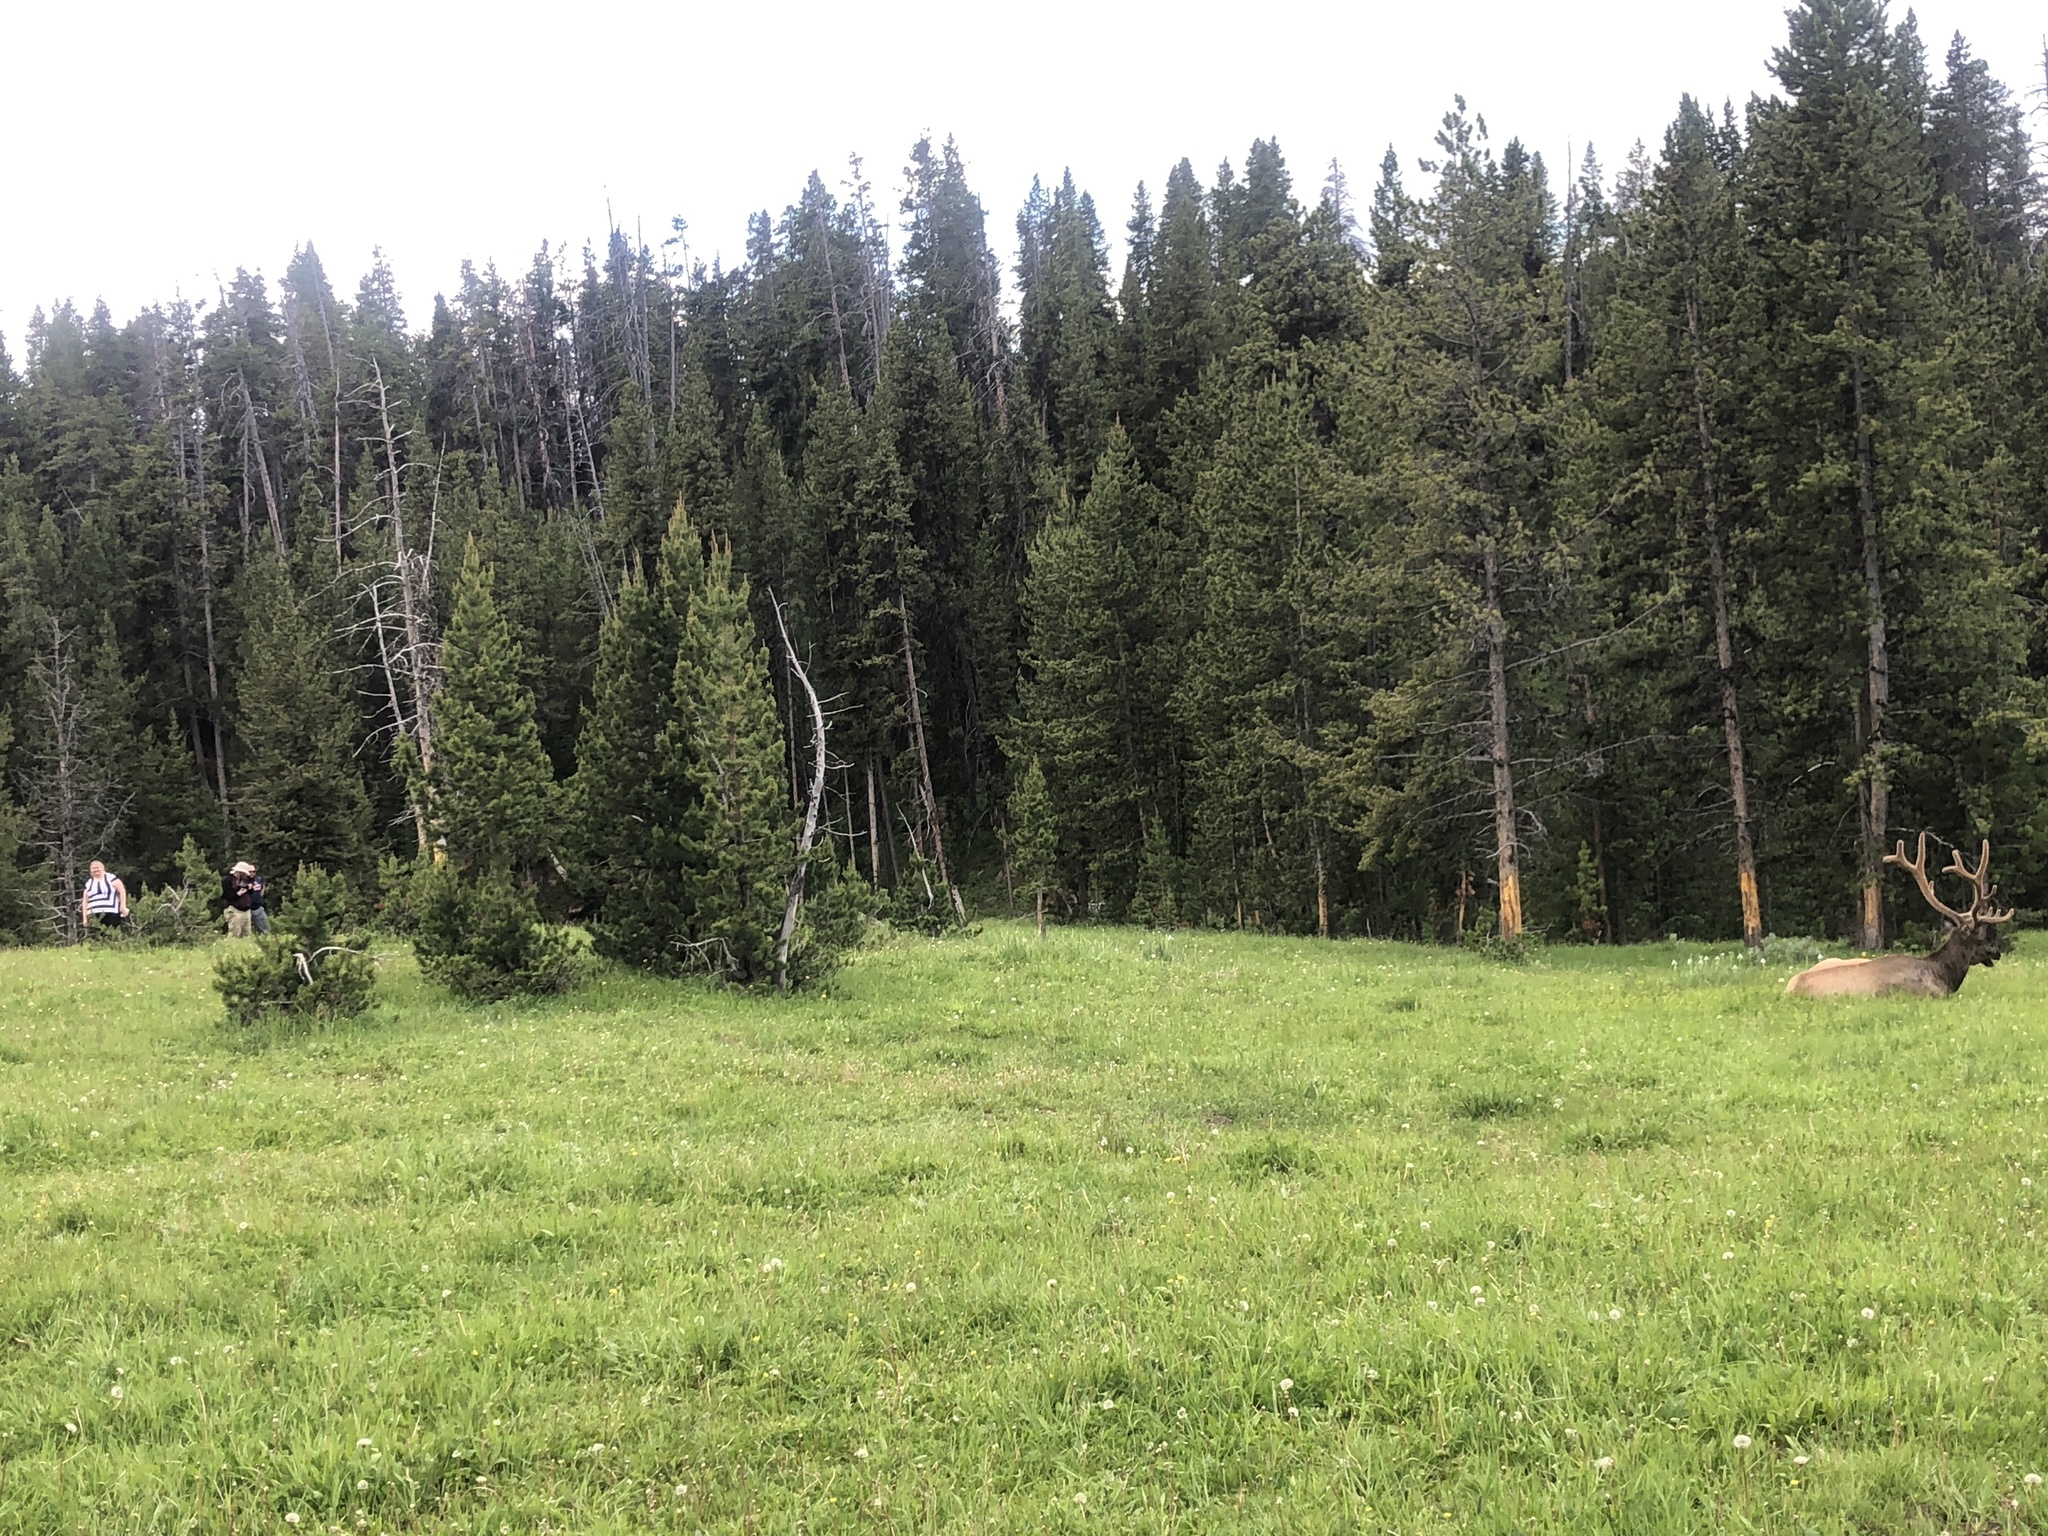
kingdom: Animalia
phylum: Chordata
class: Mammalia
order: Artiodactyla
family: Cervidae
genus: Cervus
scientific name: Cervus elaphus
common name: Red deer
